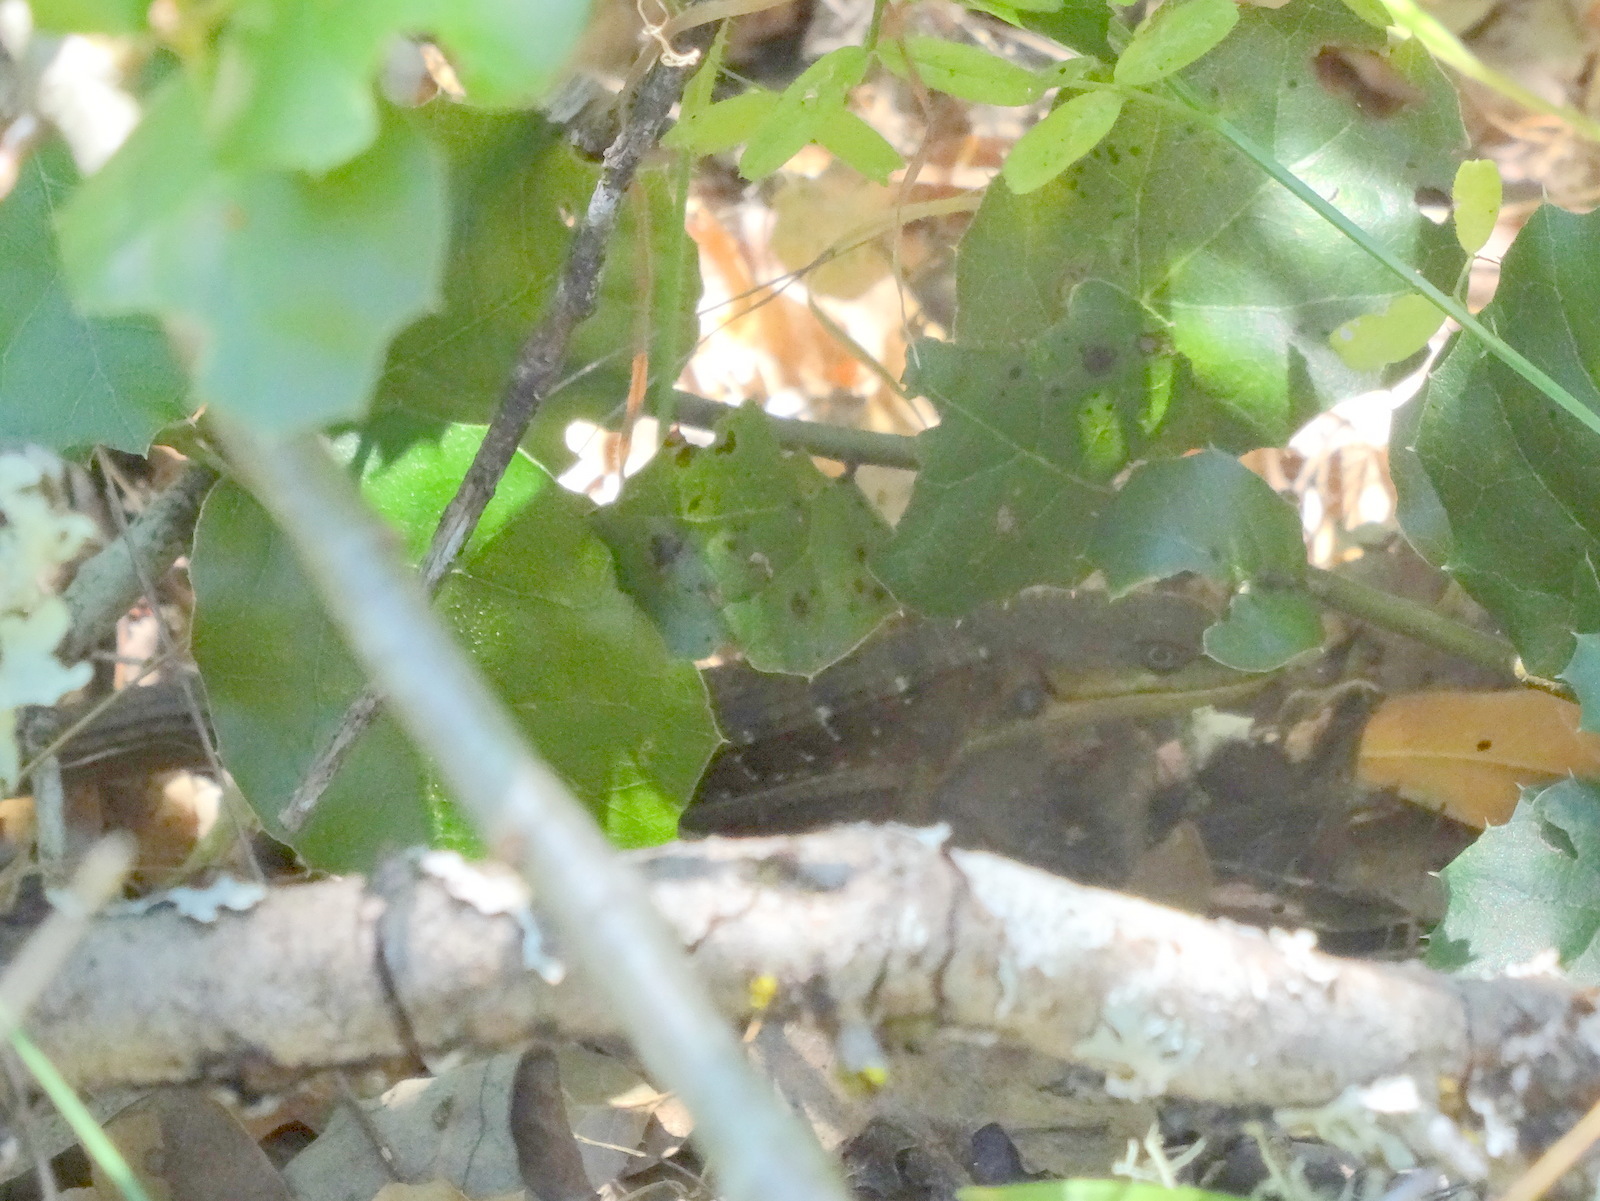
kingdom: Animalia
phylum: Chordata
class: Squamata
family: Anguidae
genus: Elgaria
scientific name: Elgaria multicarinata
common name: Southern alligator lizard
